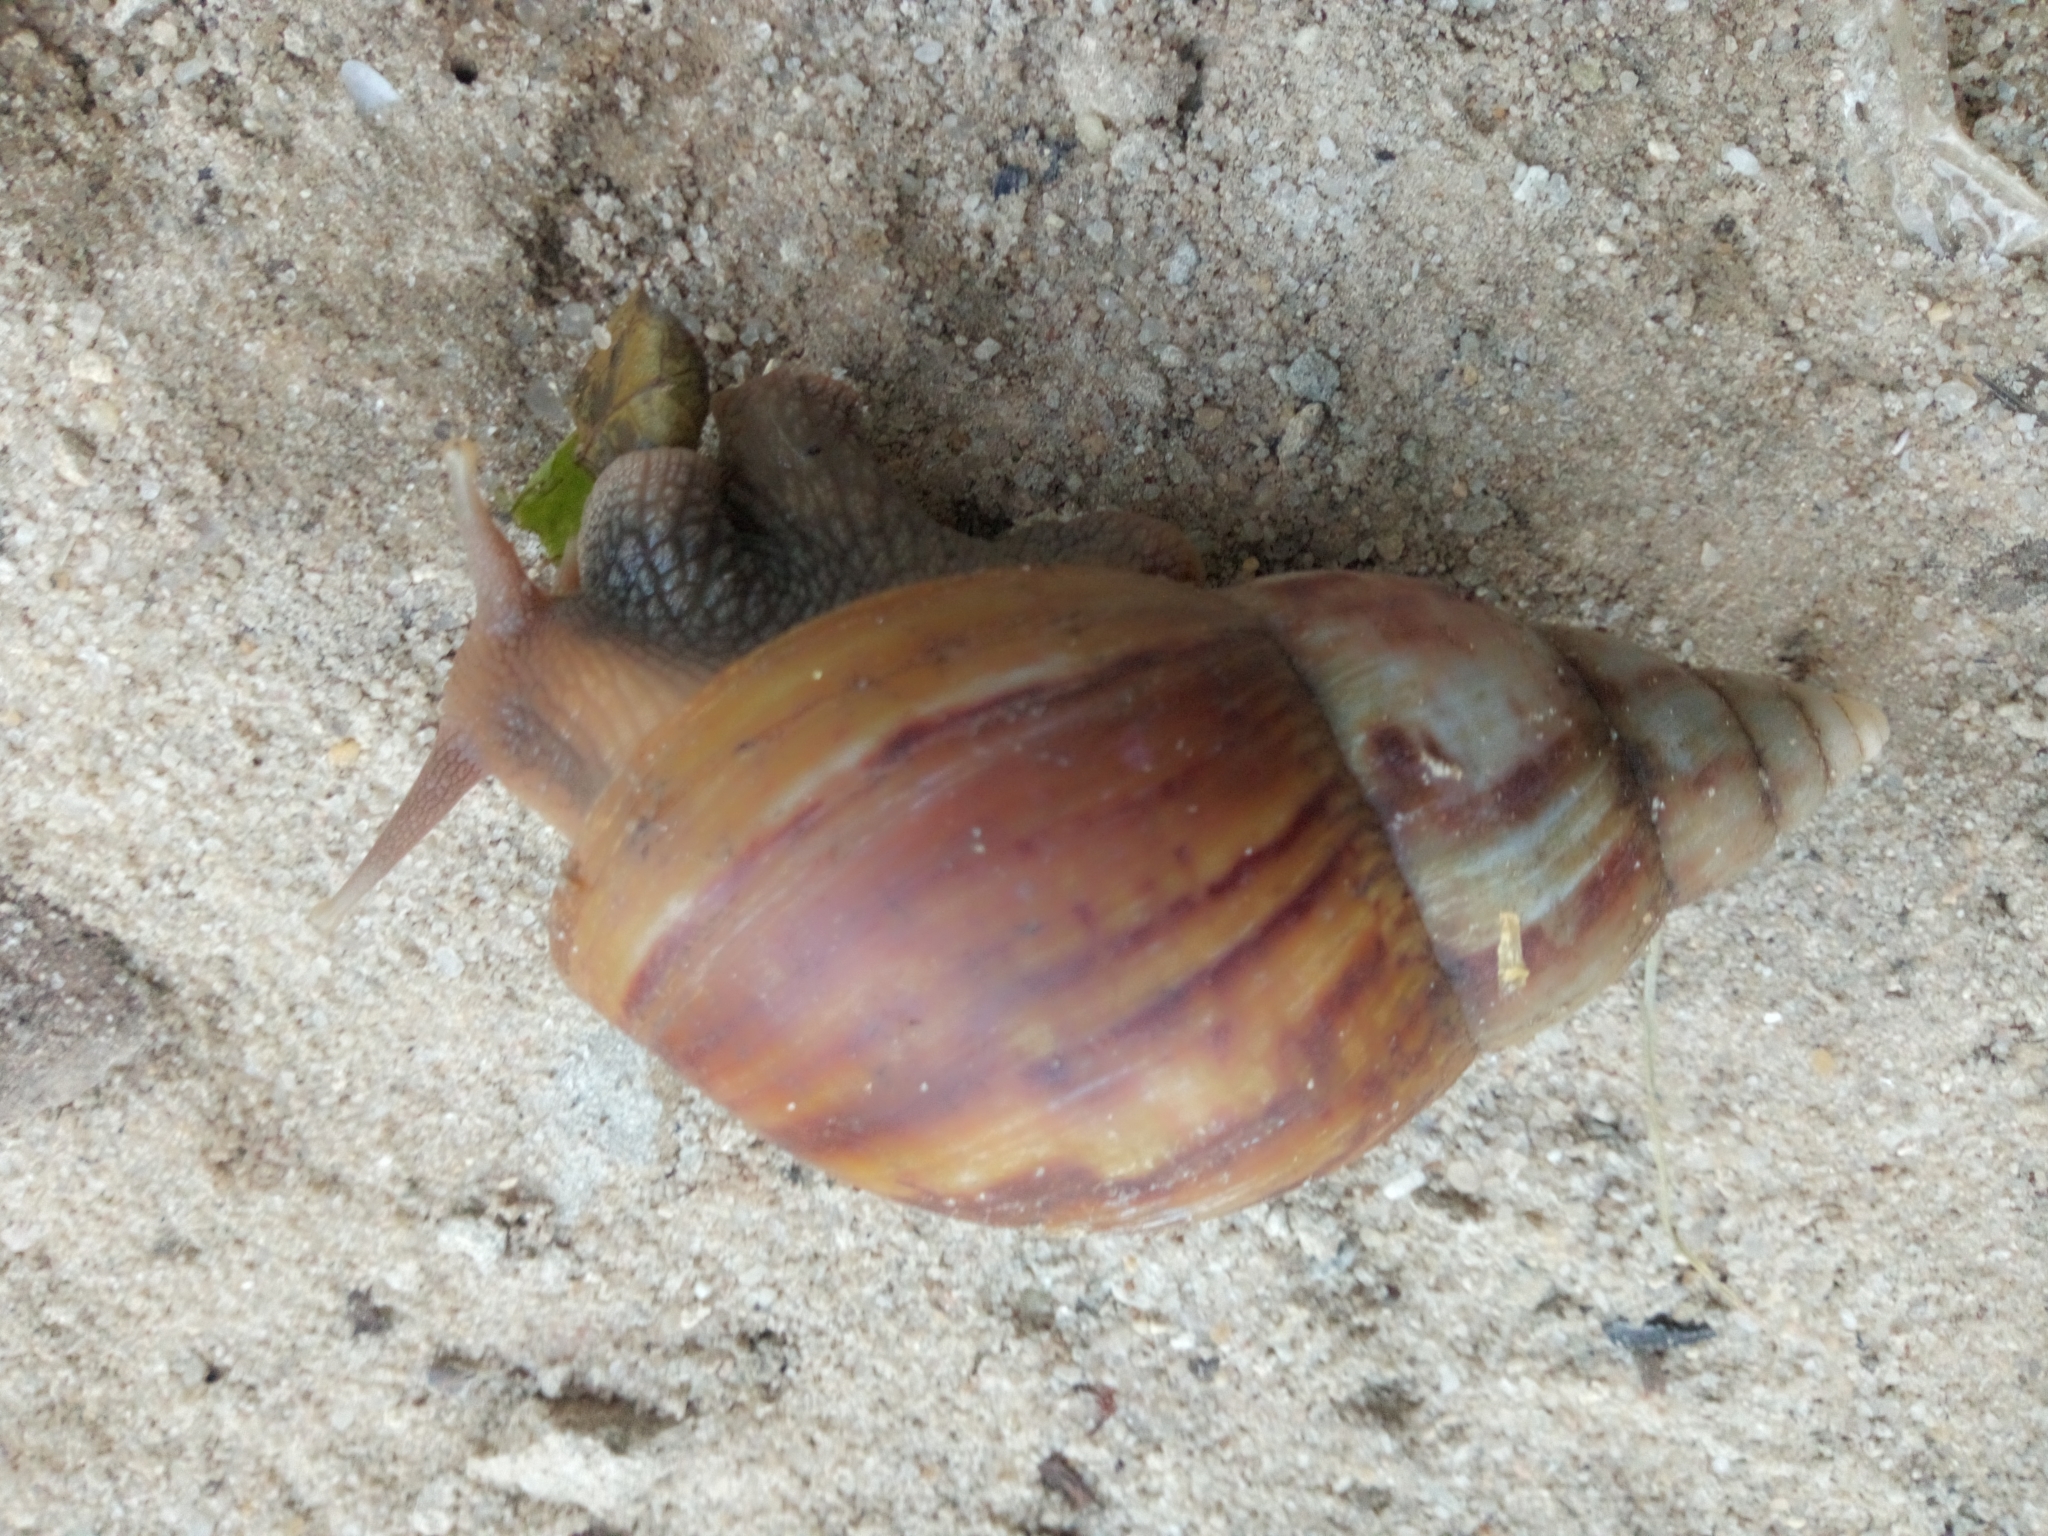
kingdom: Animalia
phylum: Mollusca
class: Gastropoda
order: Stylommatophora
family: Achatinidae
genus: Lissachatina
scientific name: Lissachatina fulica
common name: Giant african snail
